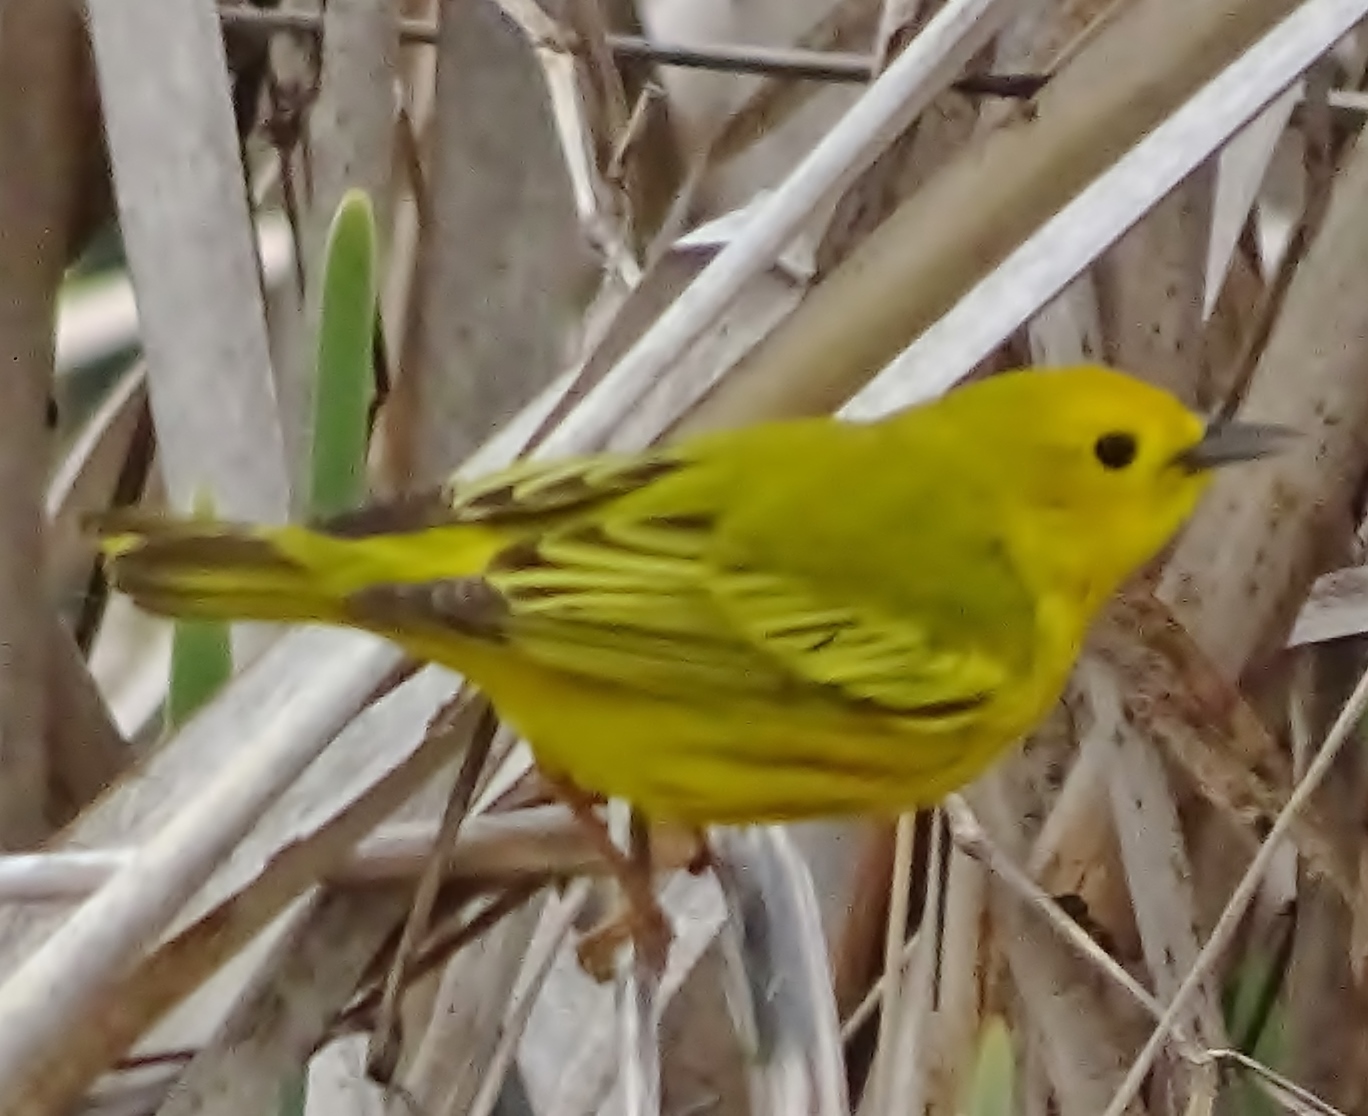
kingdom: Animalia
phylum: Chordata
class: Aves
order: Passeriformes
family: Parulidae
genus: Setophaga
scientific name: Setophaga petechia
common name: Yellow warbler
